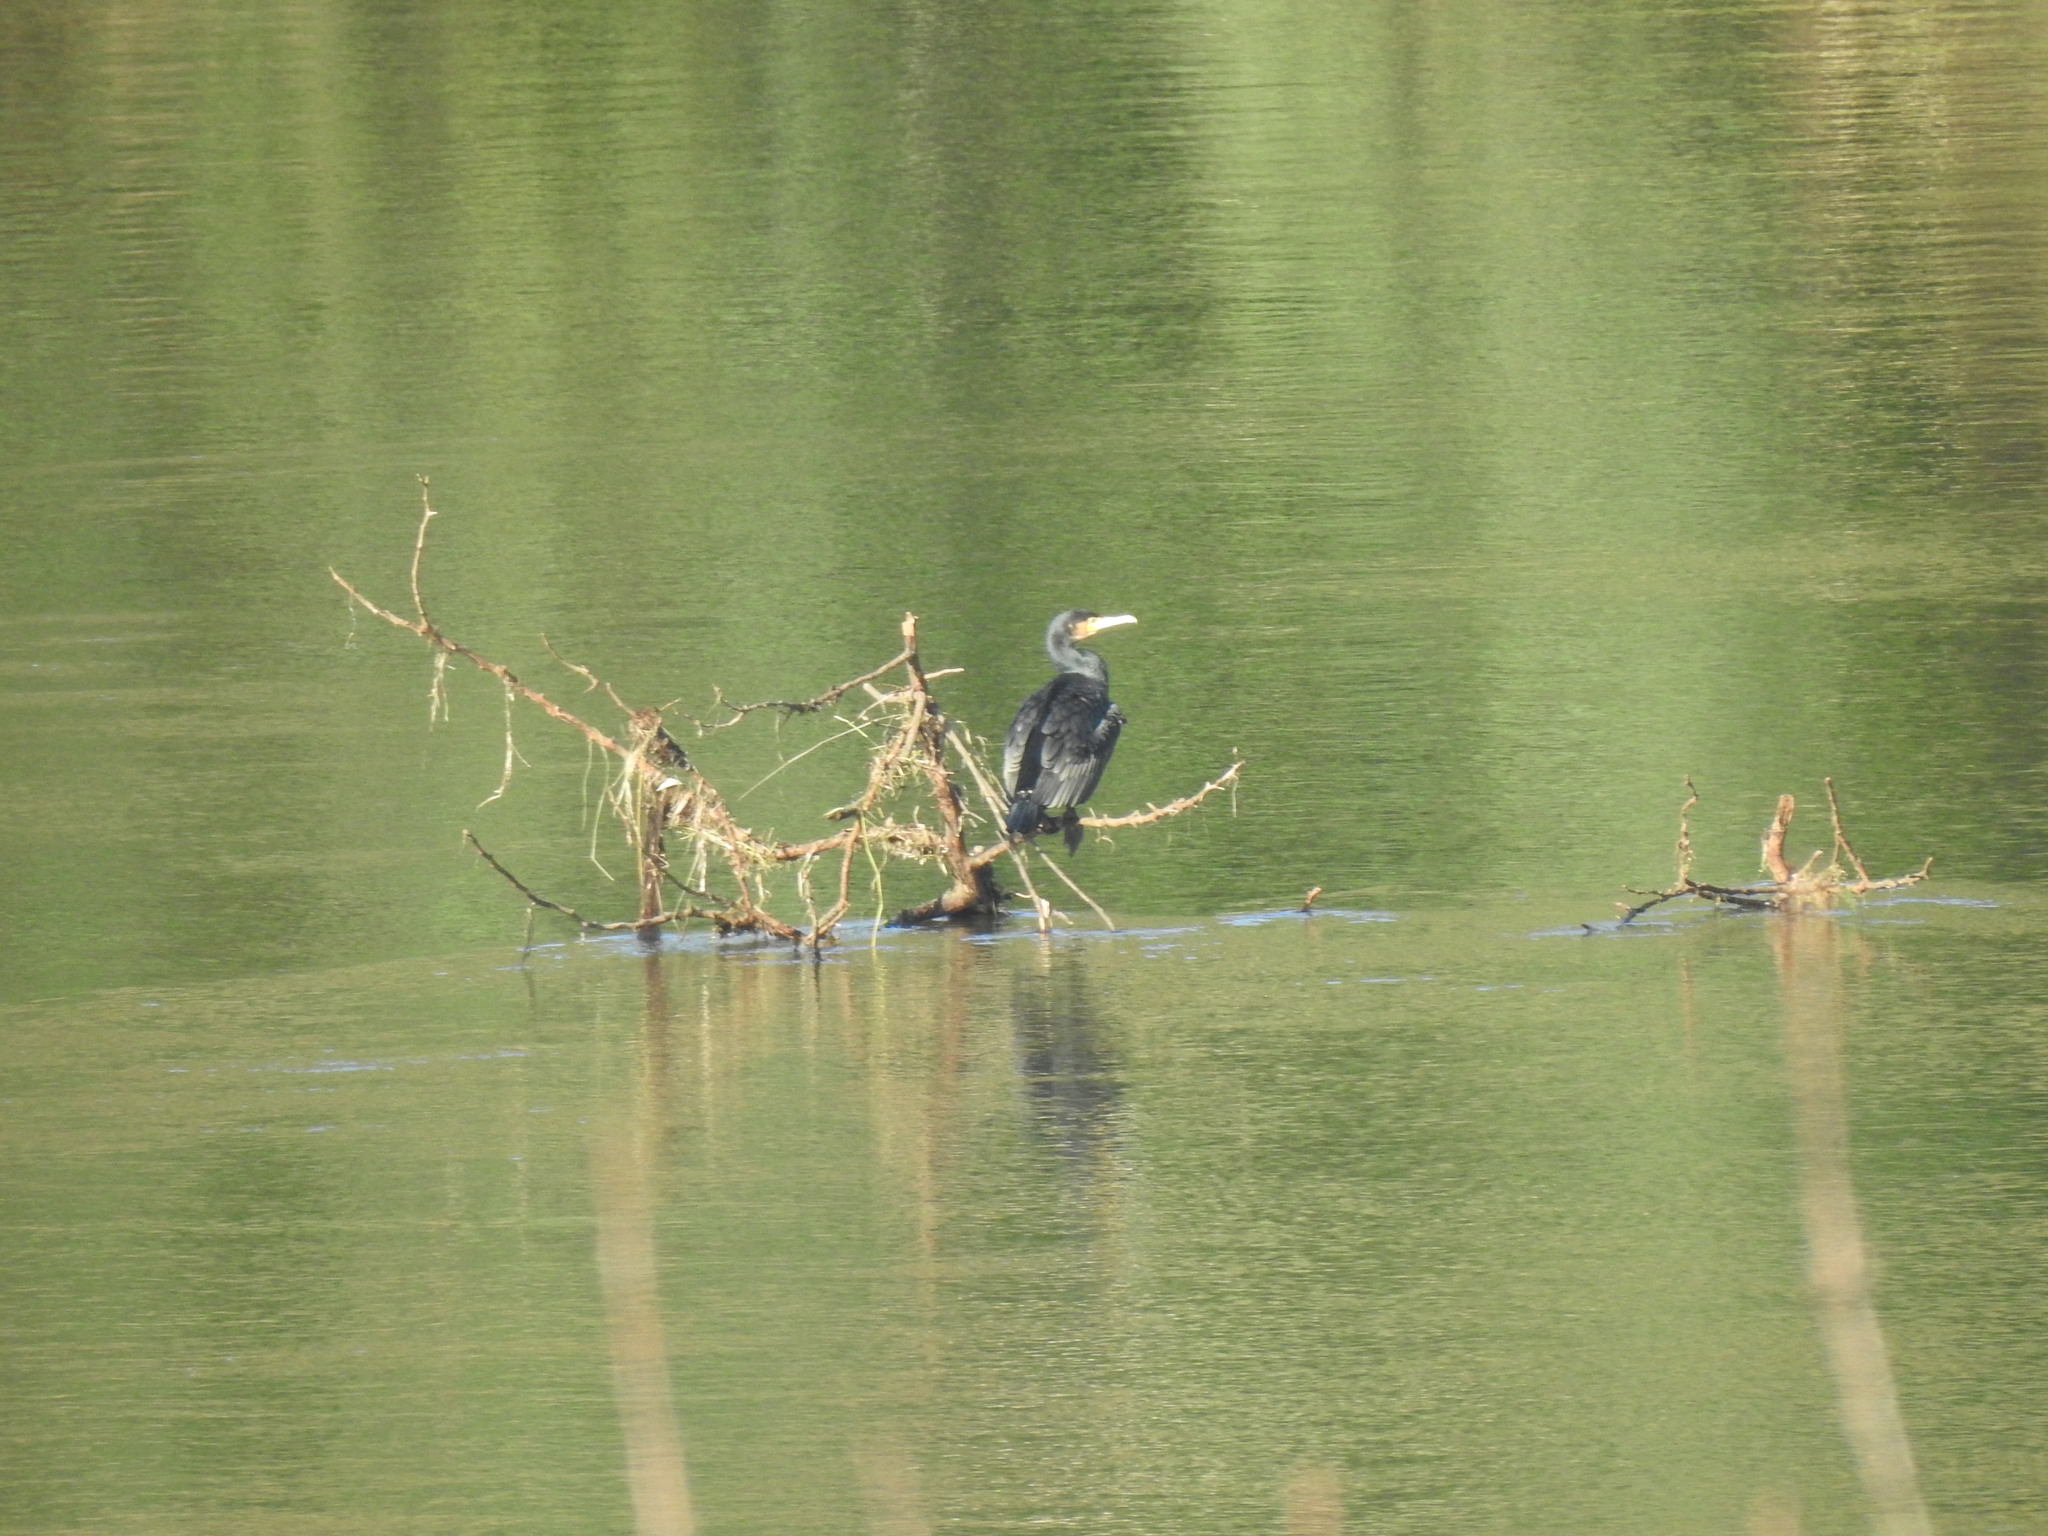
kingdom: Animalia
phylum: Chordata
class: Aves
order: Suliformes
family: Phalacrocoracidae
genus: Phalacrocorax
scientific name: Phalacrocorax carbo
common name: Great cormorant
